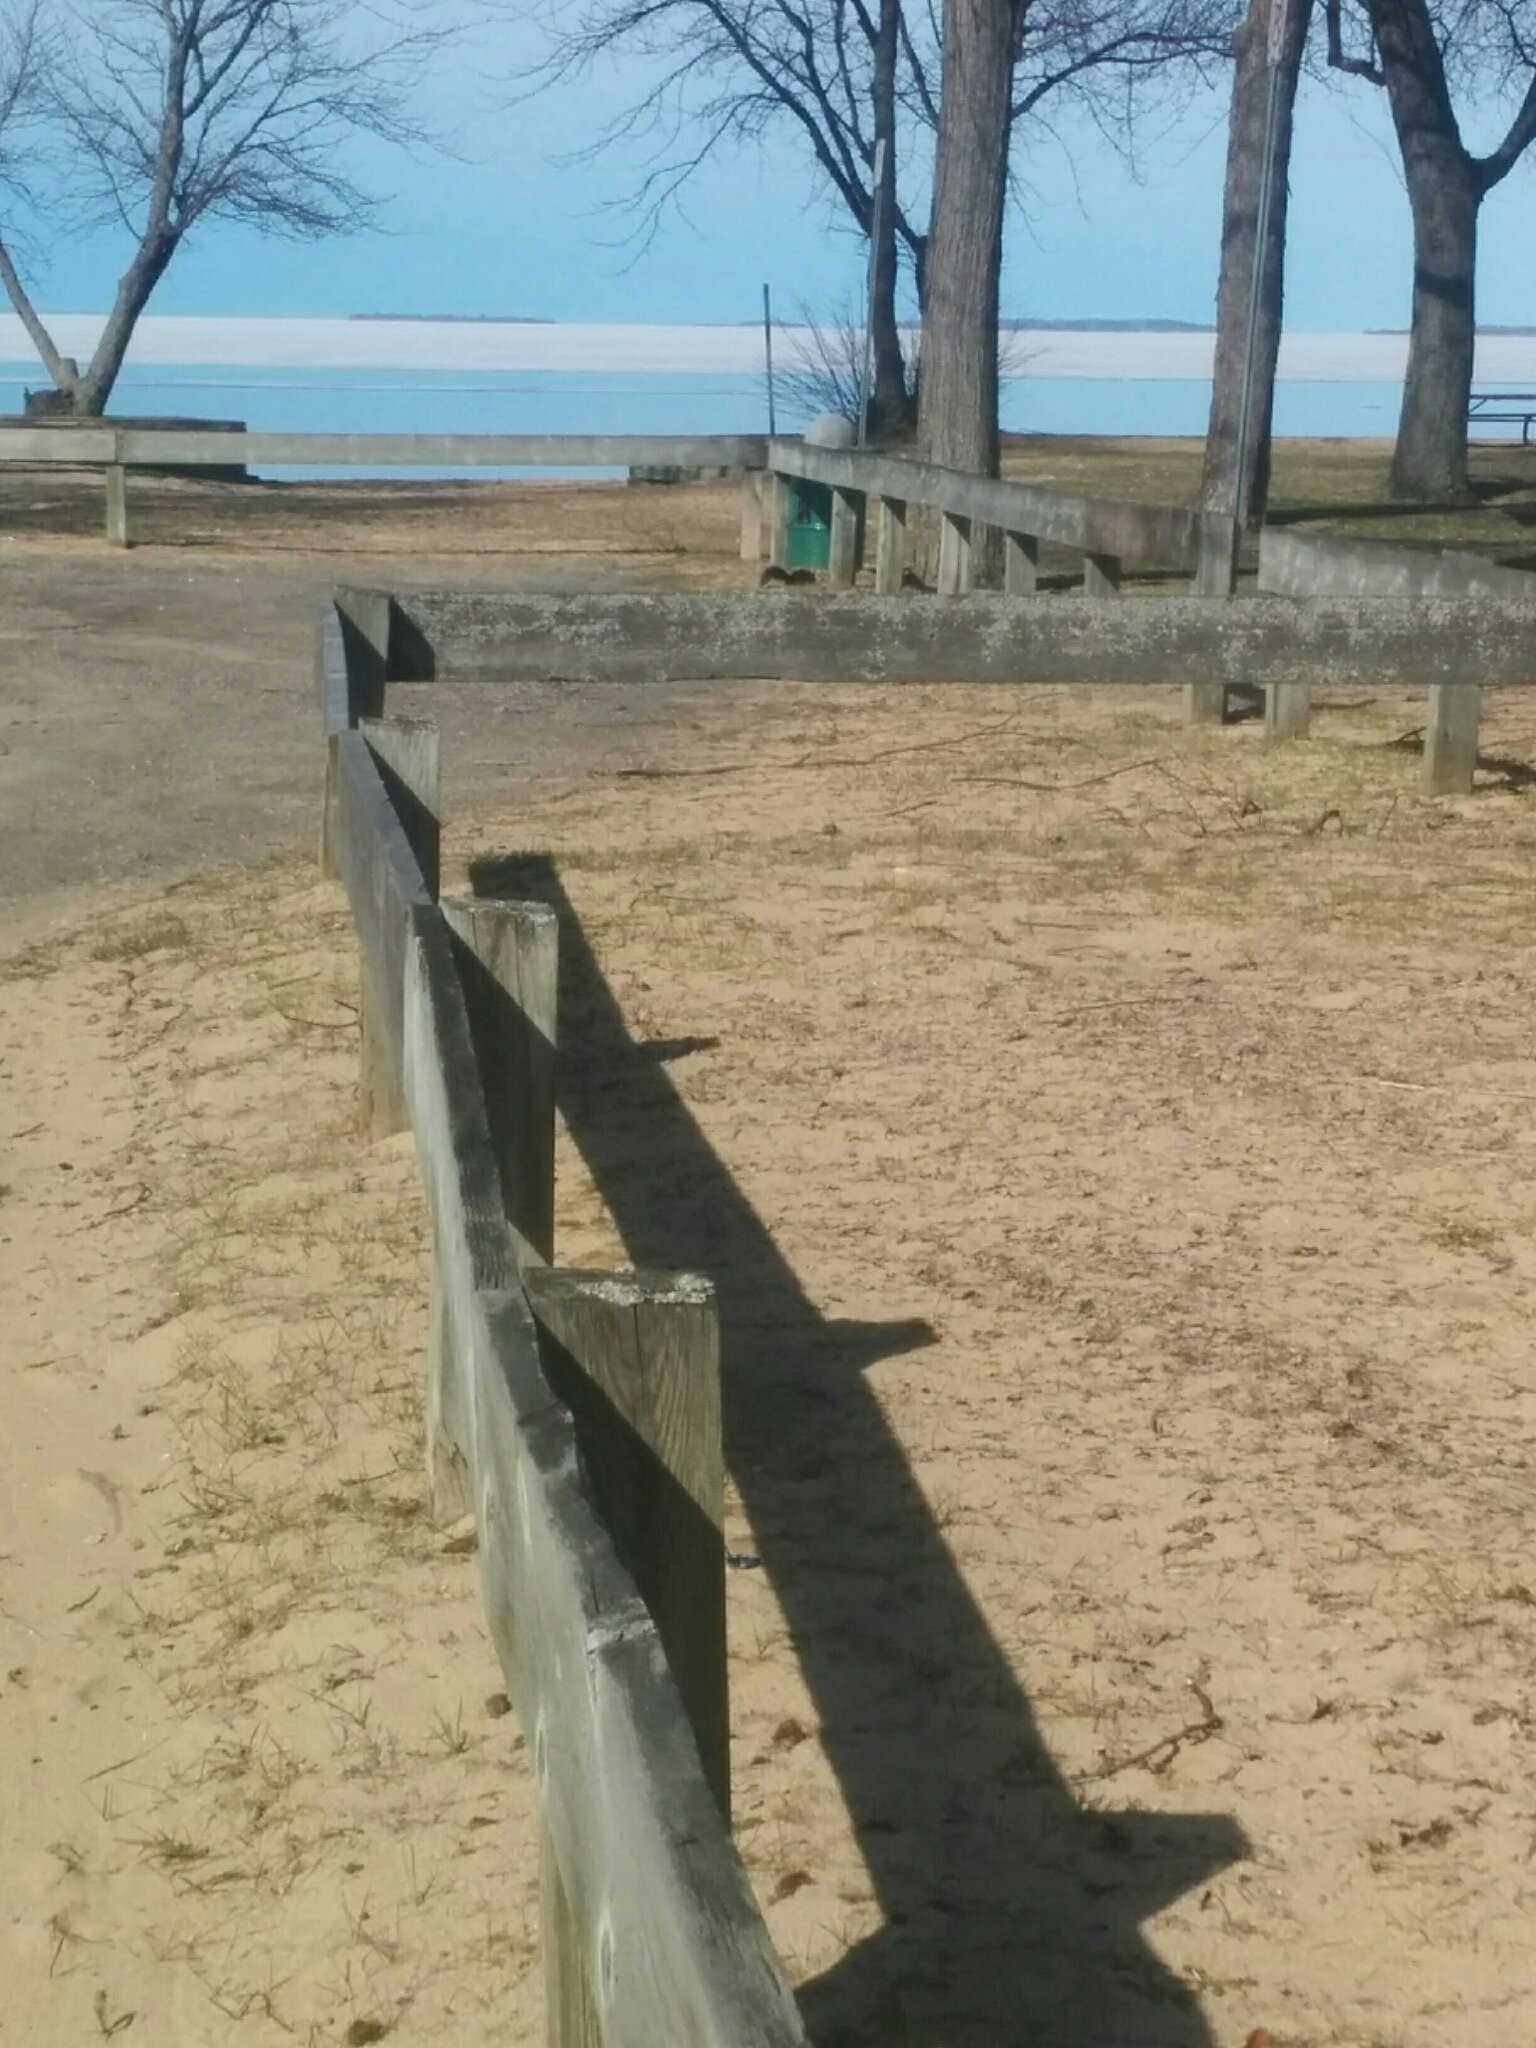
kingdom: Animalia
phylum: Chordata
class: Mammalia
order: Rodentia
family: Sciuridae
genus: Sciurus
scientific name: Sciurus carolinensis
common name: Eastern gray squirrel
